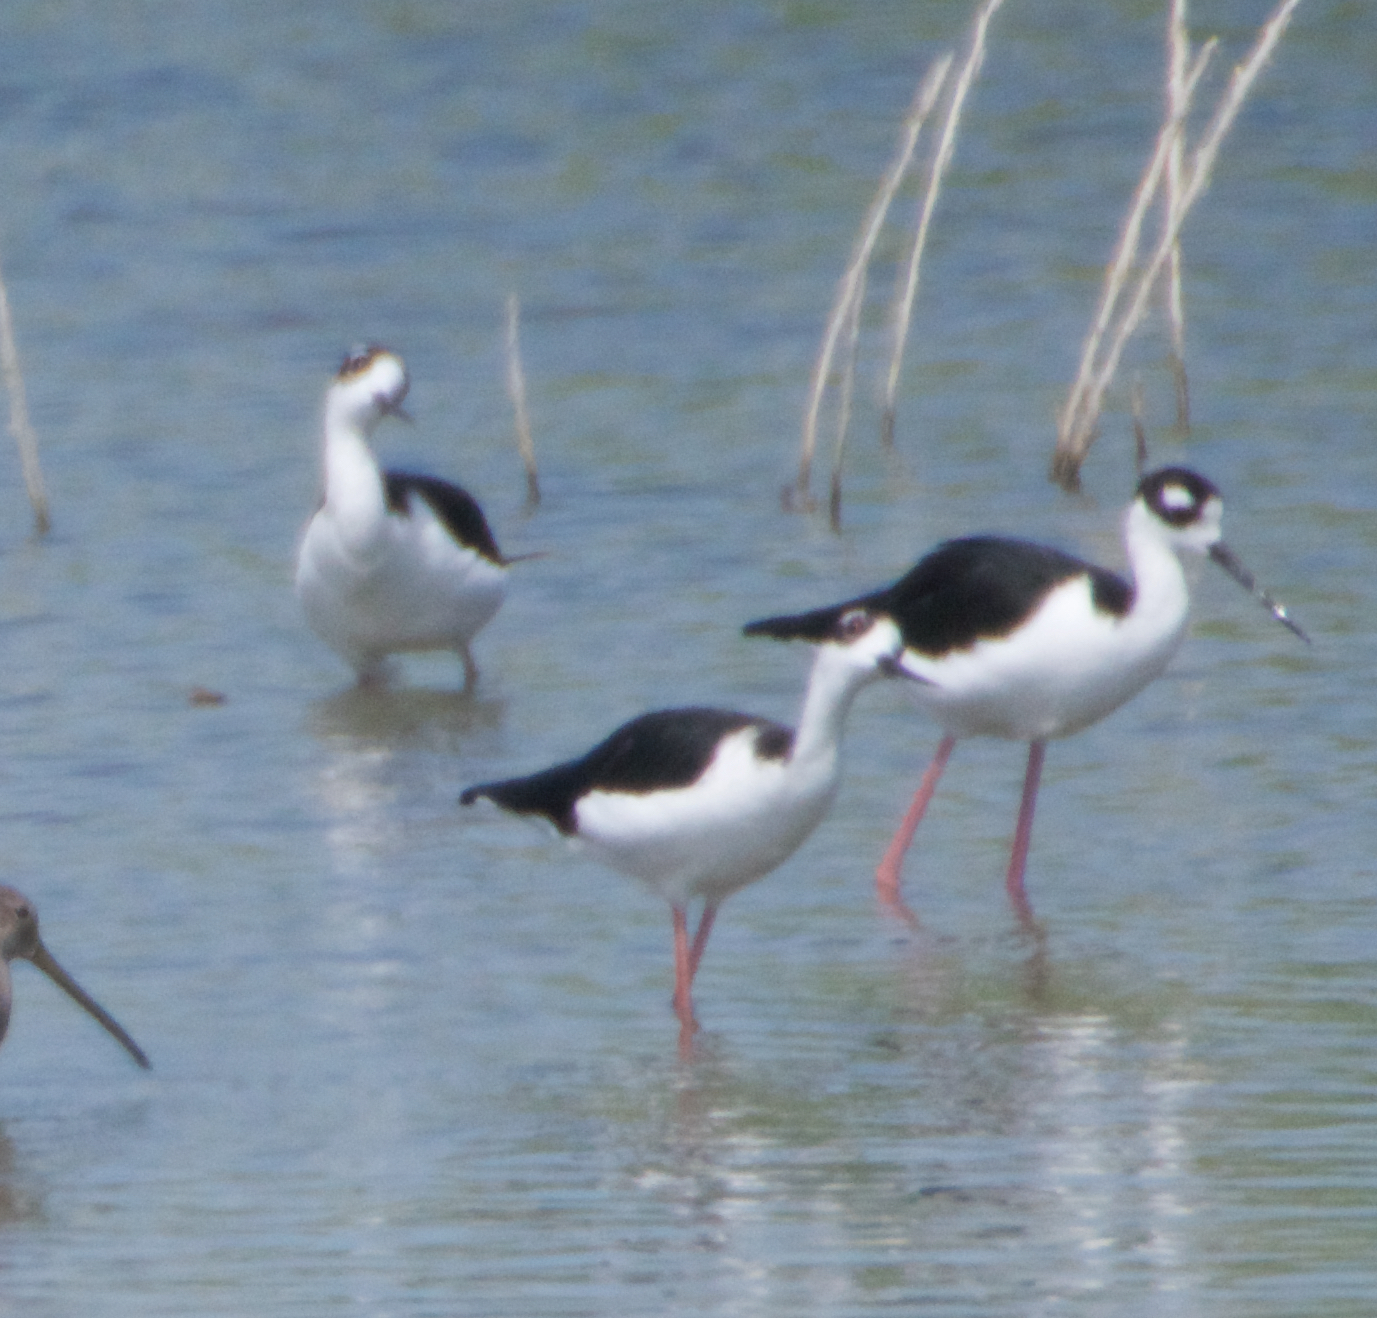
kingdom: Animalia
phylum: Chordata
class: Aves
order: Charadriiformes
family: Recurvirostridae
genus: Himantopus
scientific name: Himantopus mexicanus
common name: Black-necked stilt
